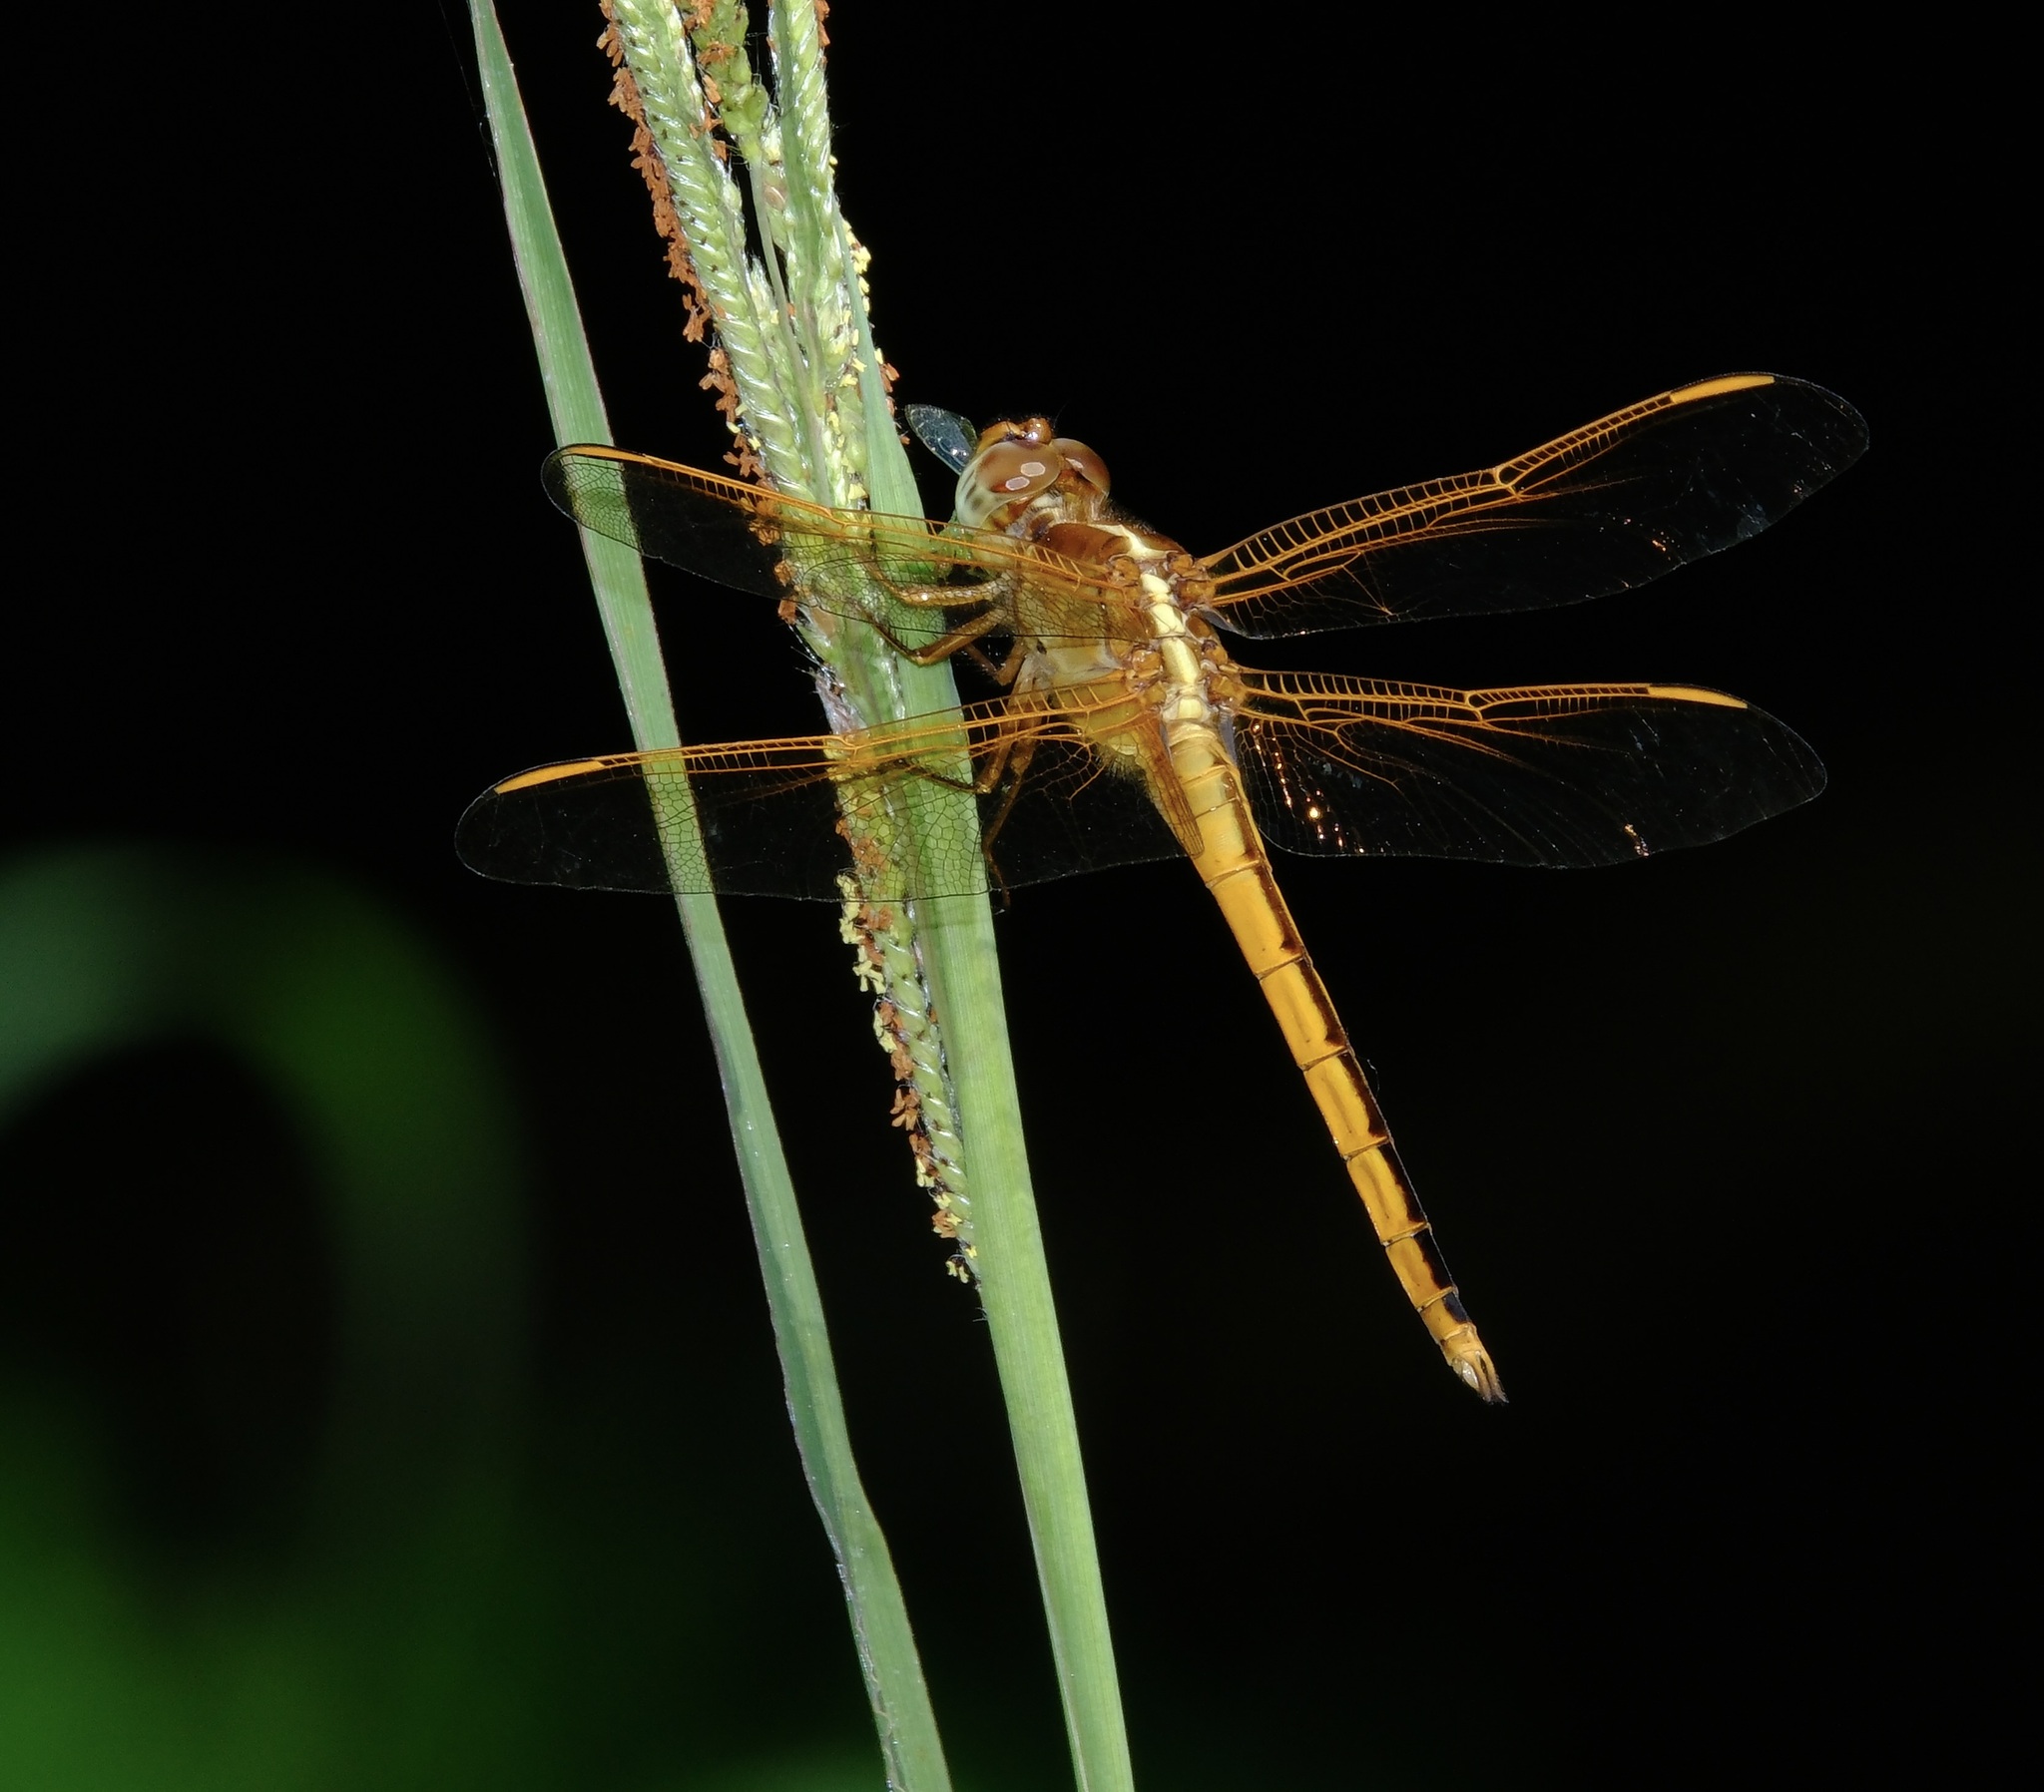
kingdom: Animalia
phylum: Arthropoda
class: Insecta
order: Odonata
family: Libellulidae
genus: Libellula
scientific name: Libellula needhami
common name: Needham's skimmer
